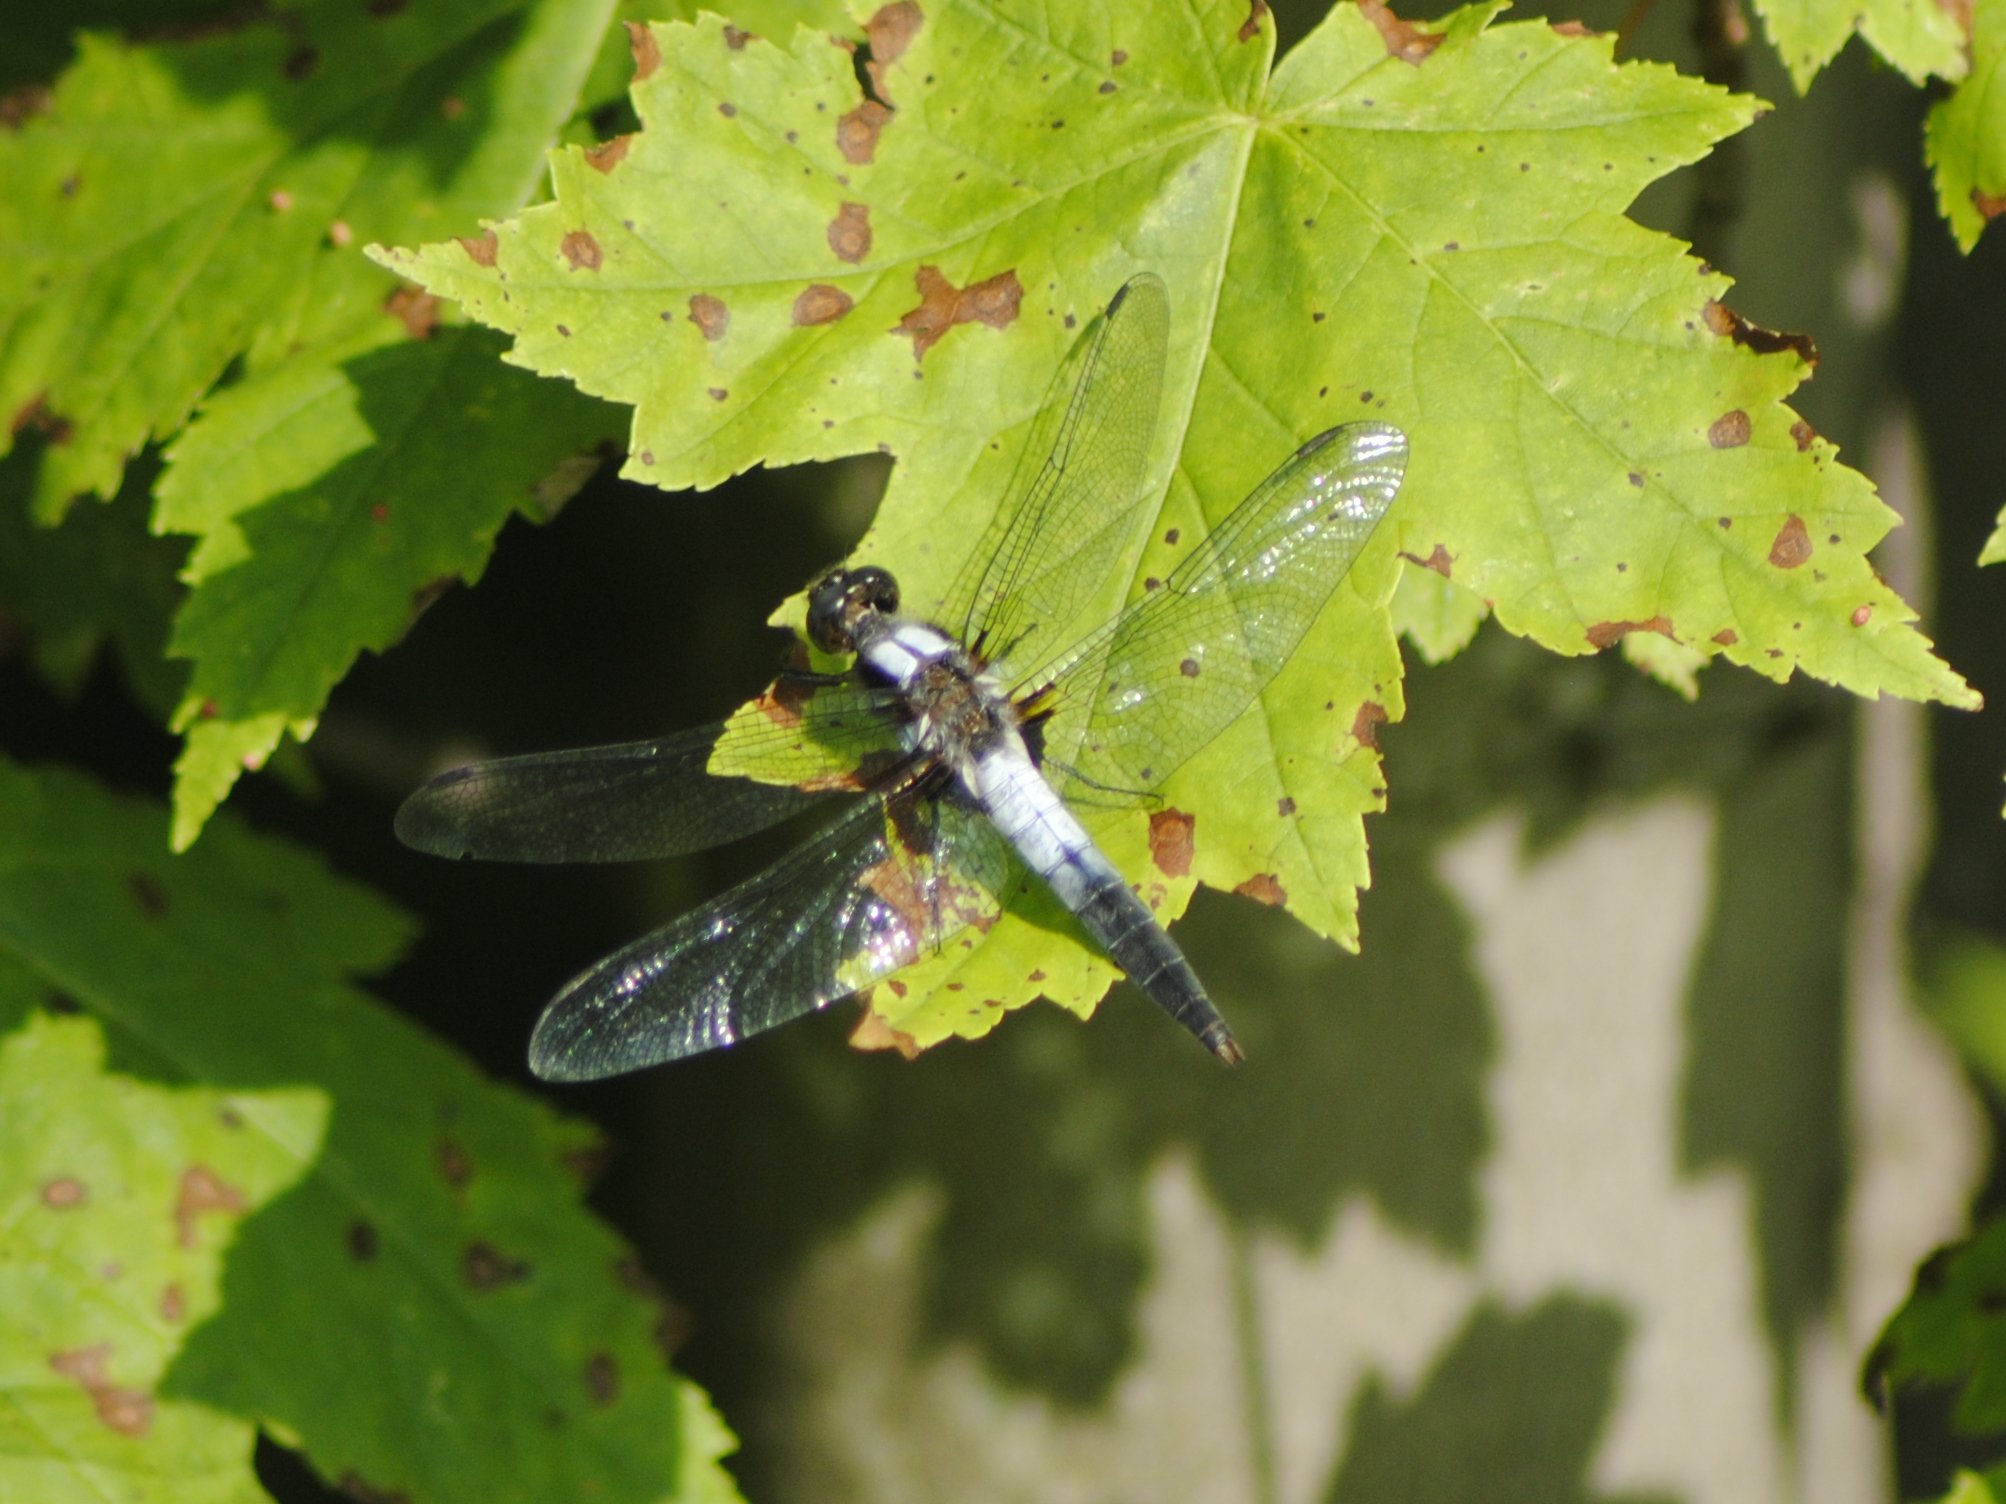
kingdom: Animalia
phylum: Arthropoda
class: Insecta
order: Odonata
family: Libellulidae
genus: Ladona
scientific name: Ladona julia
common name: Chalk-fronted corporal
